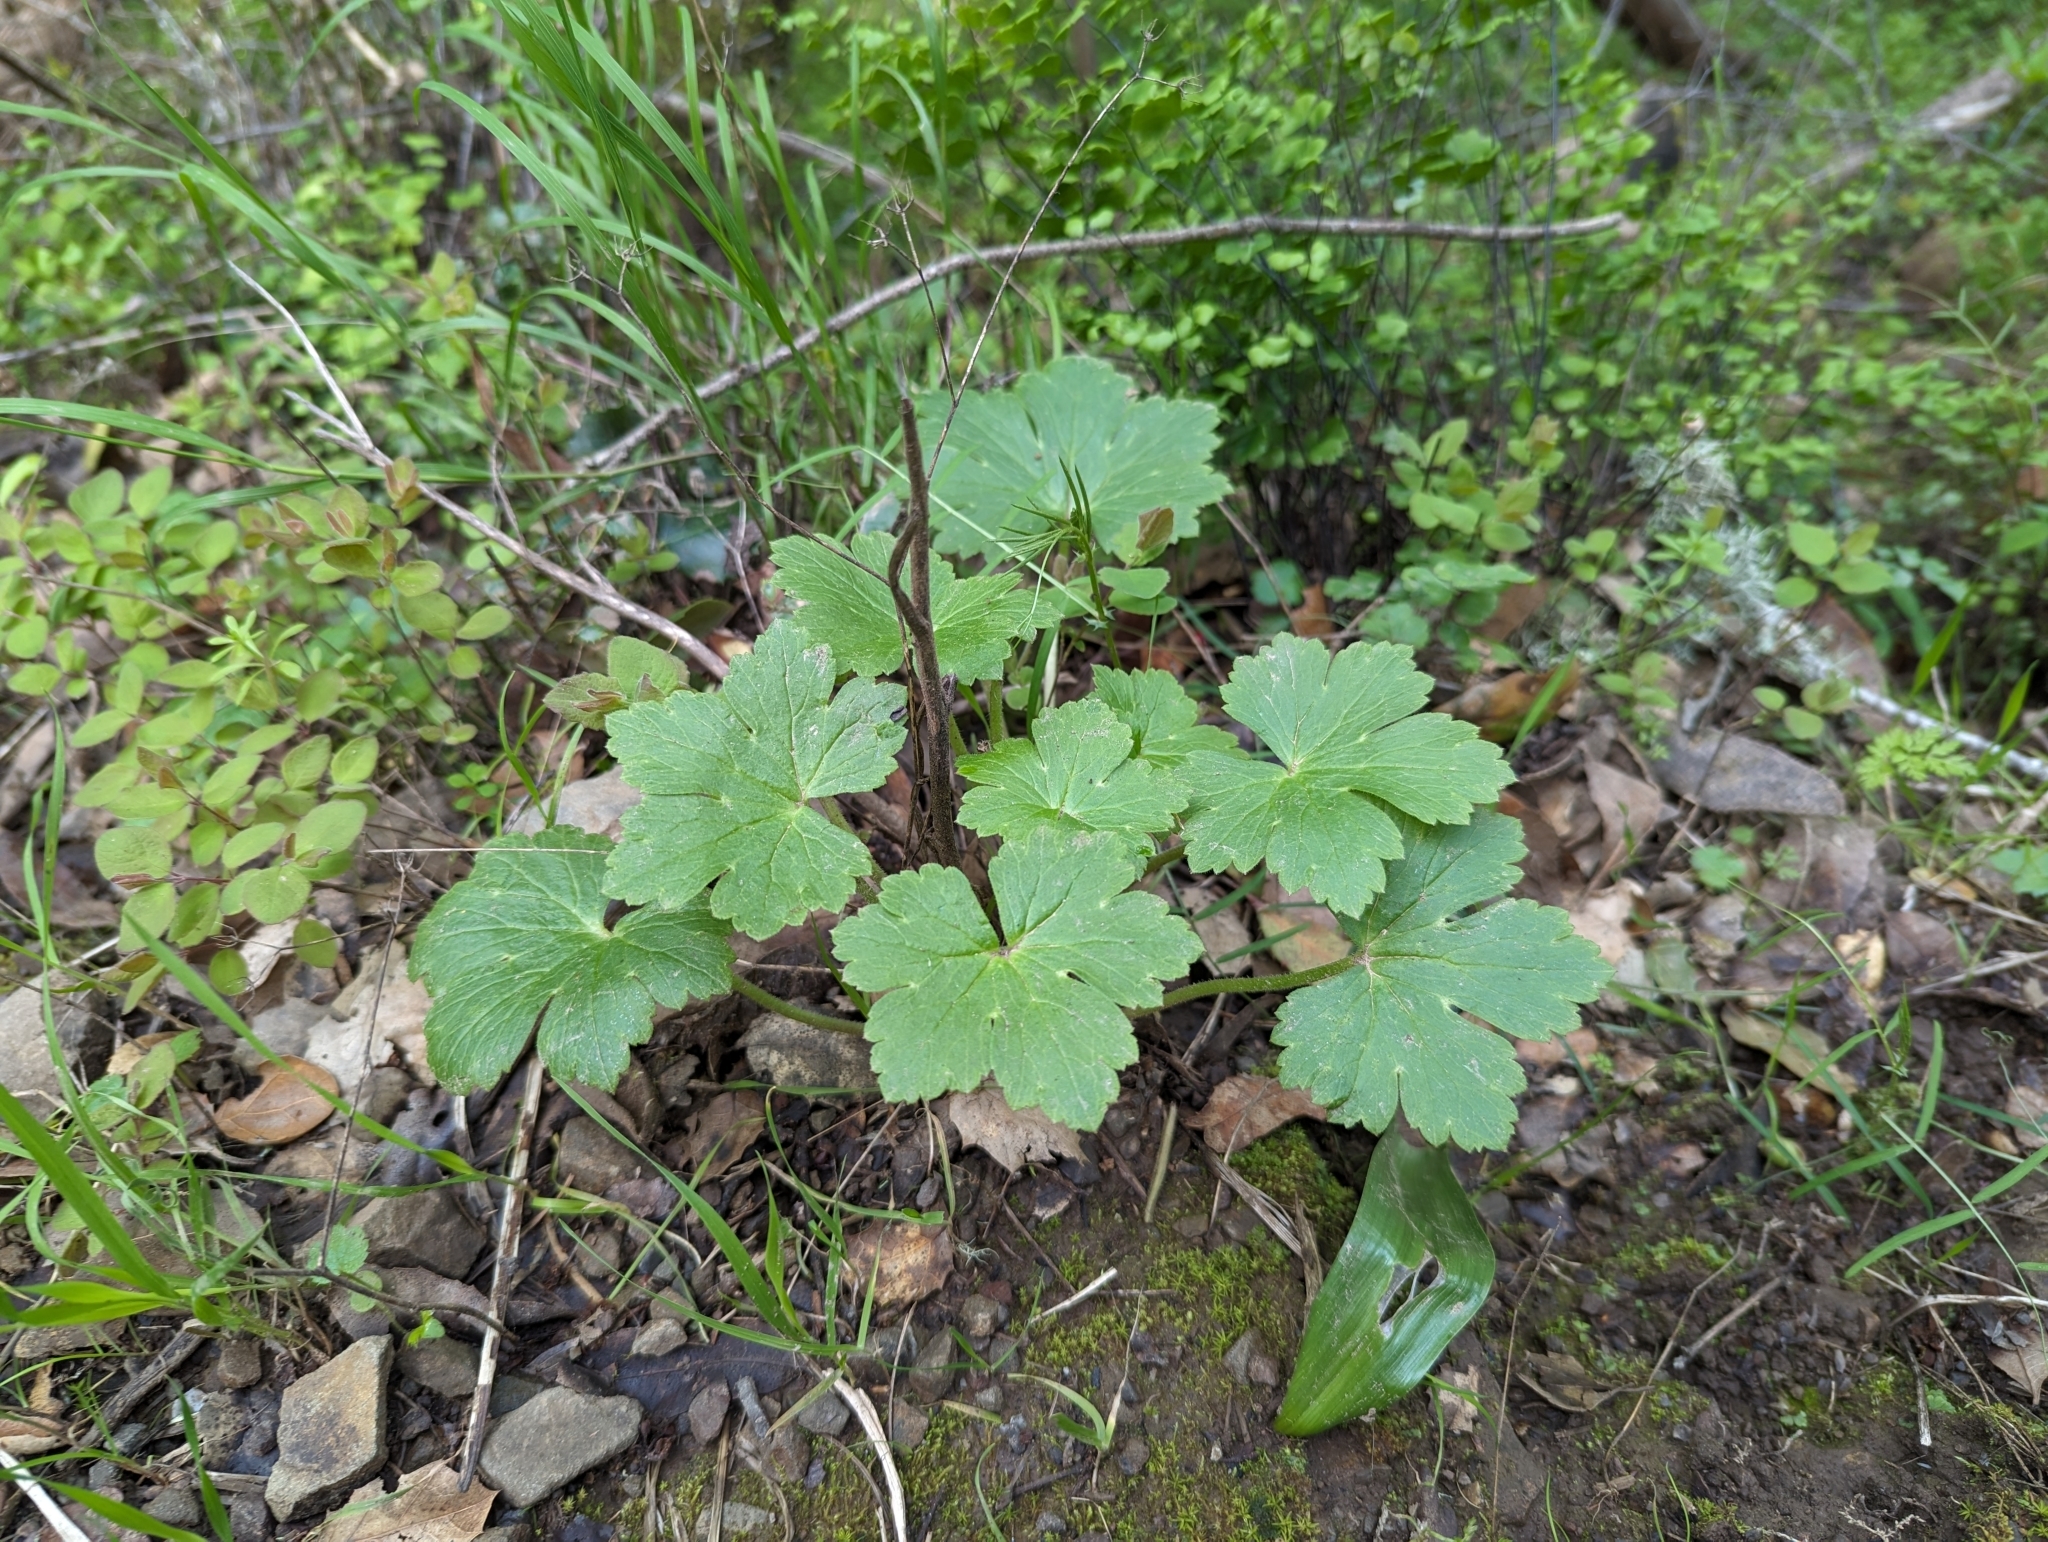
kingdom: Plantae
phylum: Tracheophyta
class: Magnoliopsida
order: Ranunculales
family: Ranunculaceae
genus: Delphinium
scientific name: Delphinium californicum
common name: California larkspur
